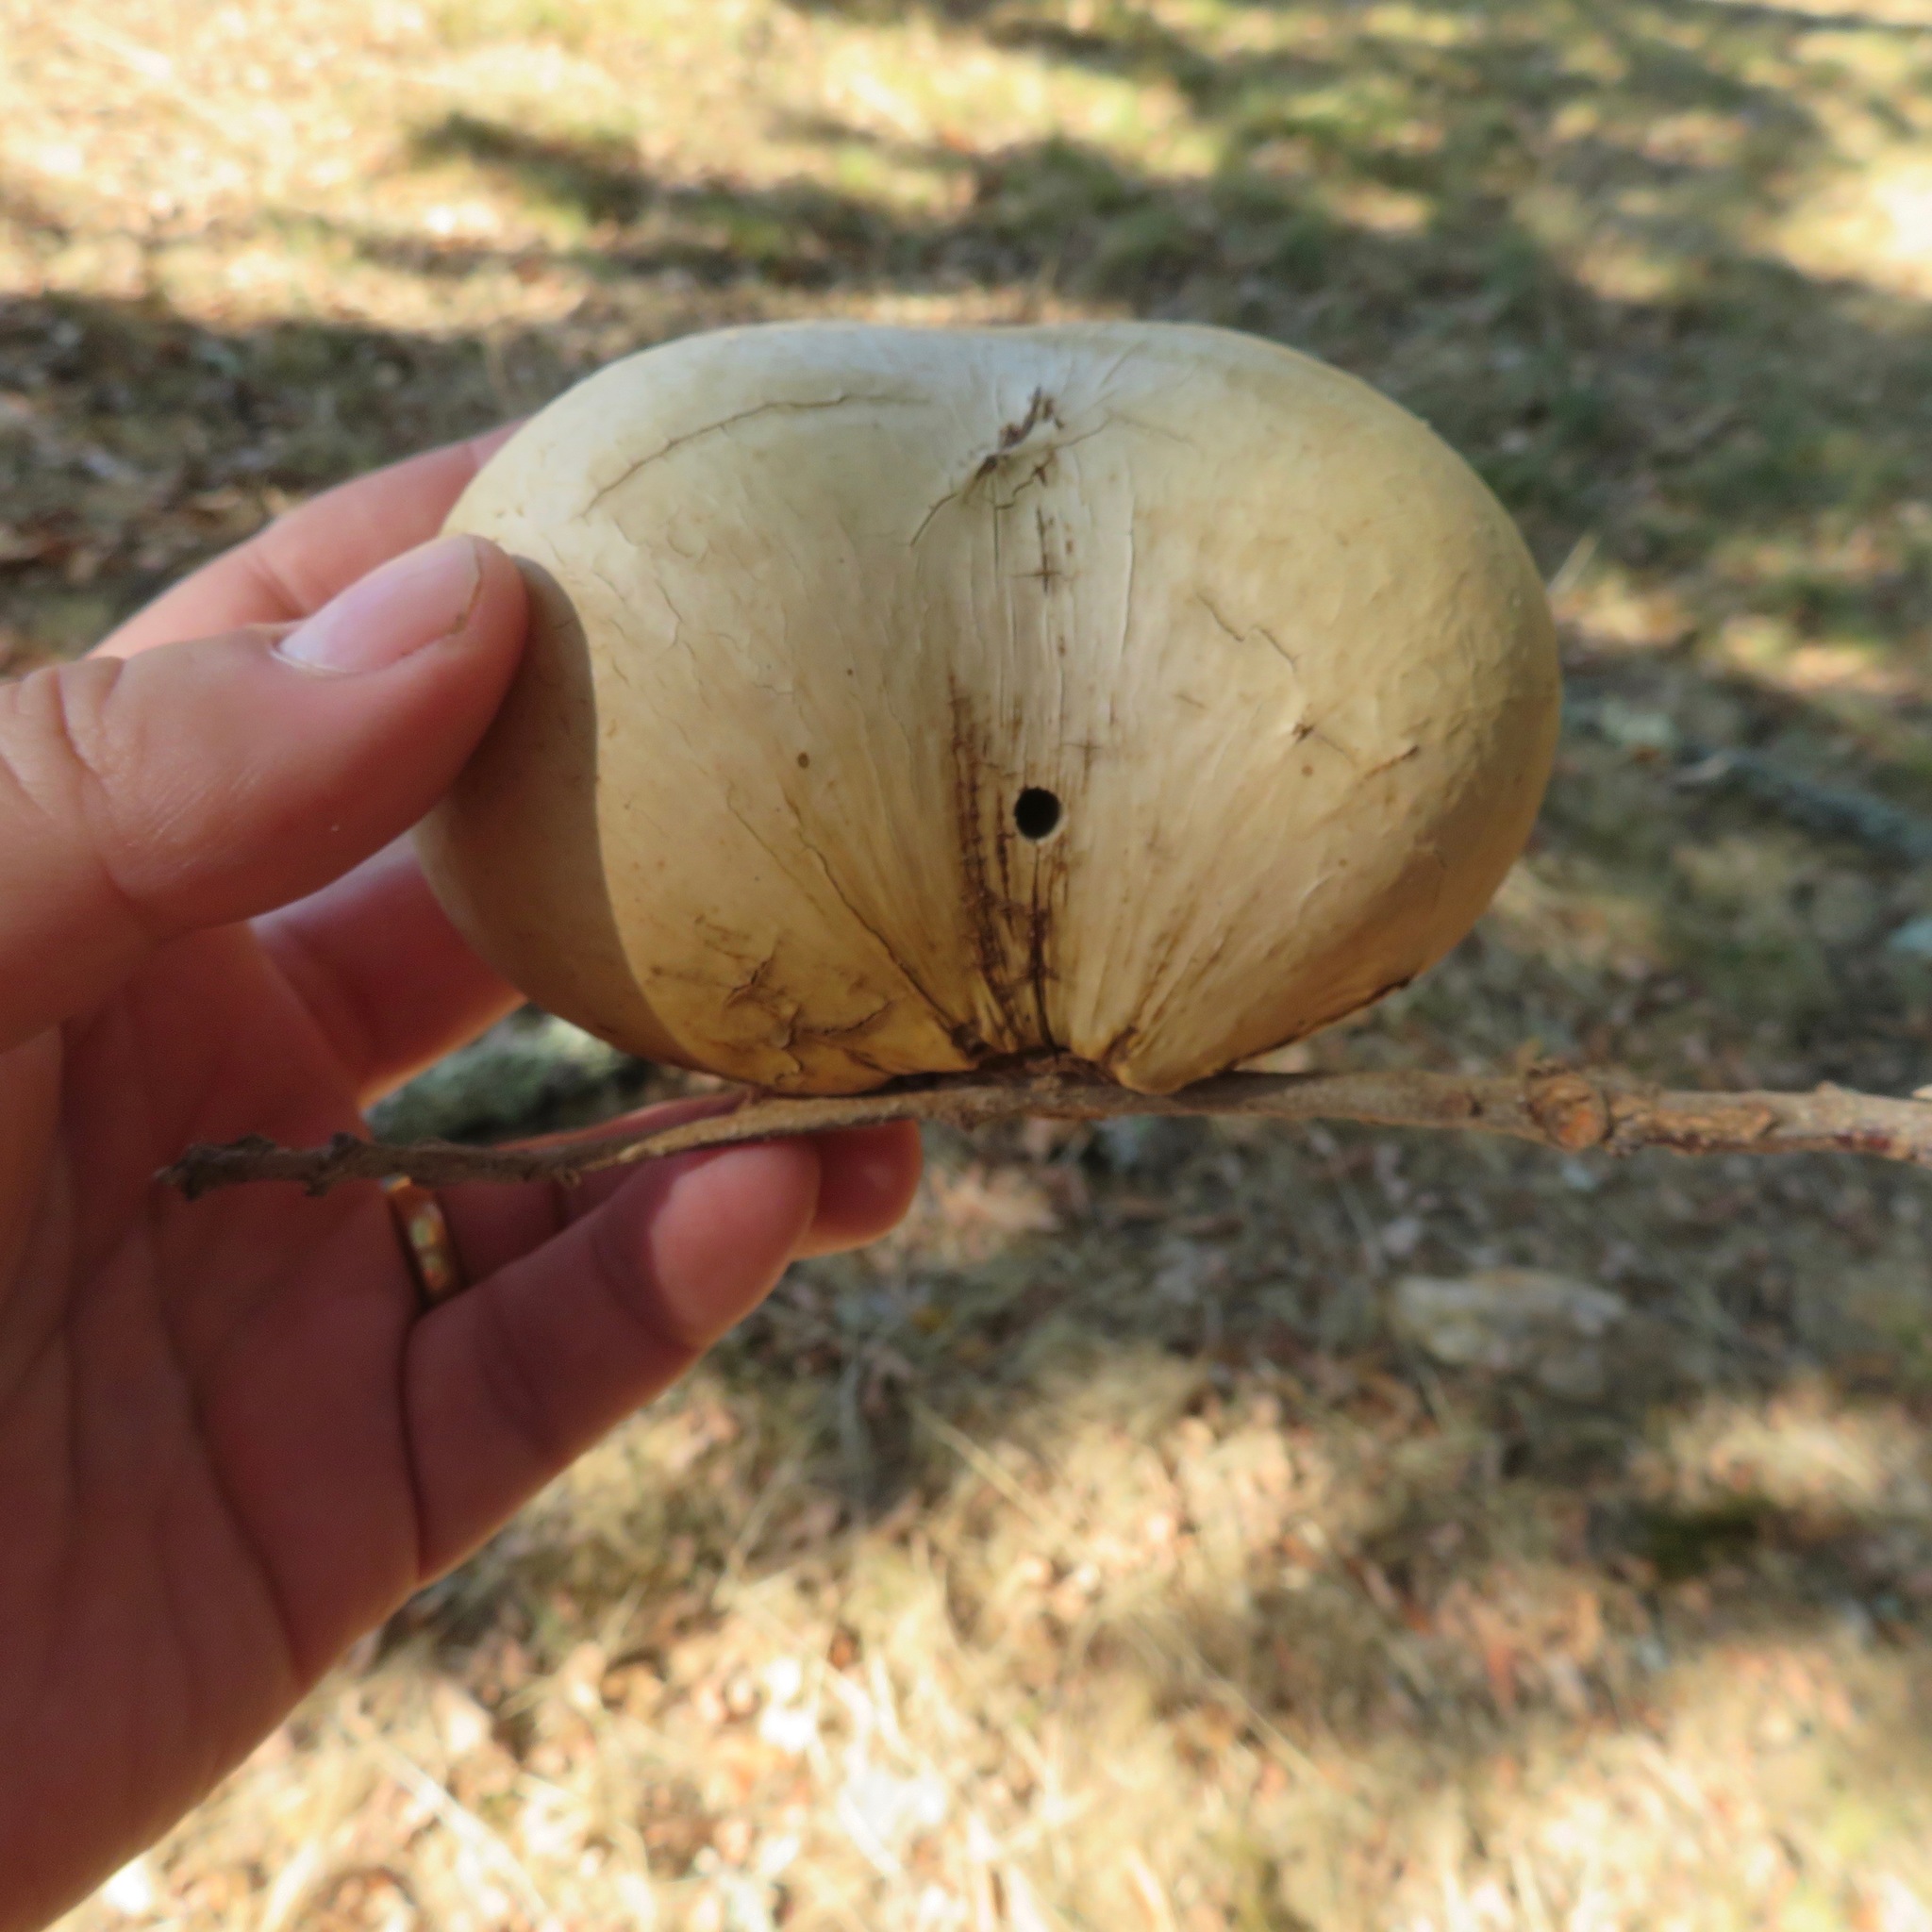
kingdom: Animalia
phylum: Arthropoda
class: Insecta
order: Hymenoptera
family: Cynipidae
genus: Andricus
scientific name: Andricus quercuscalifornicus
